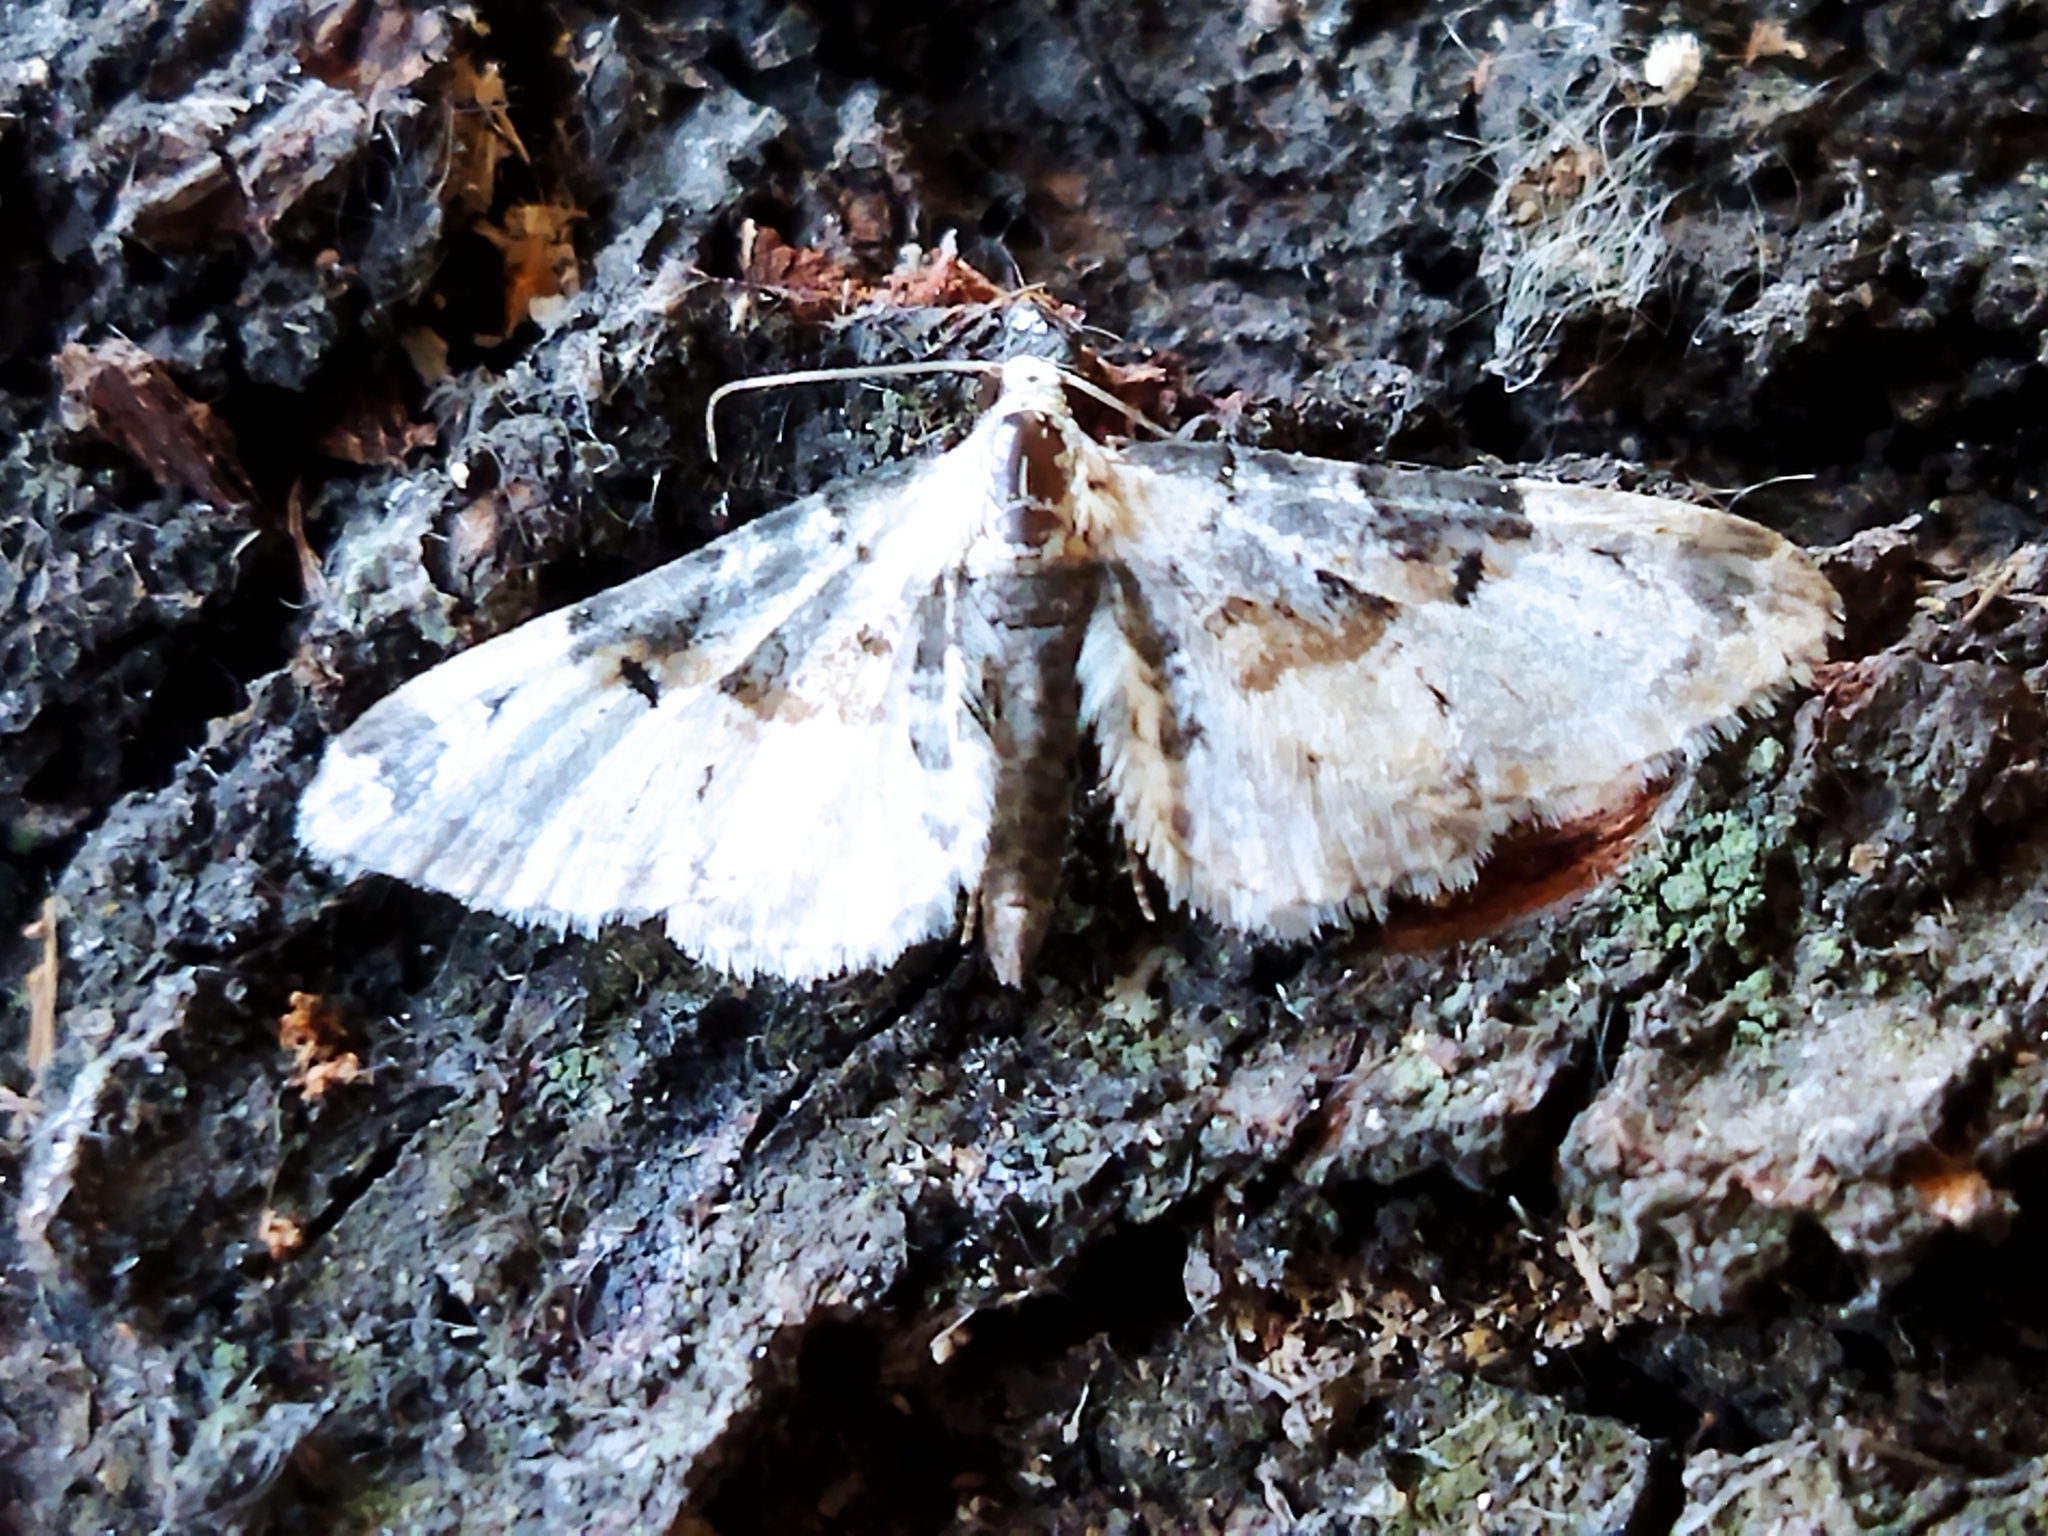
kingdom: Animalia
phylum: Arthropoda
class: Insecta
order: Lepidoptera
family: Geometridae
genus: Eupithecia
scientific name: Eupithecia extremata
